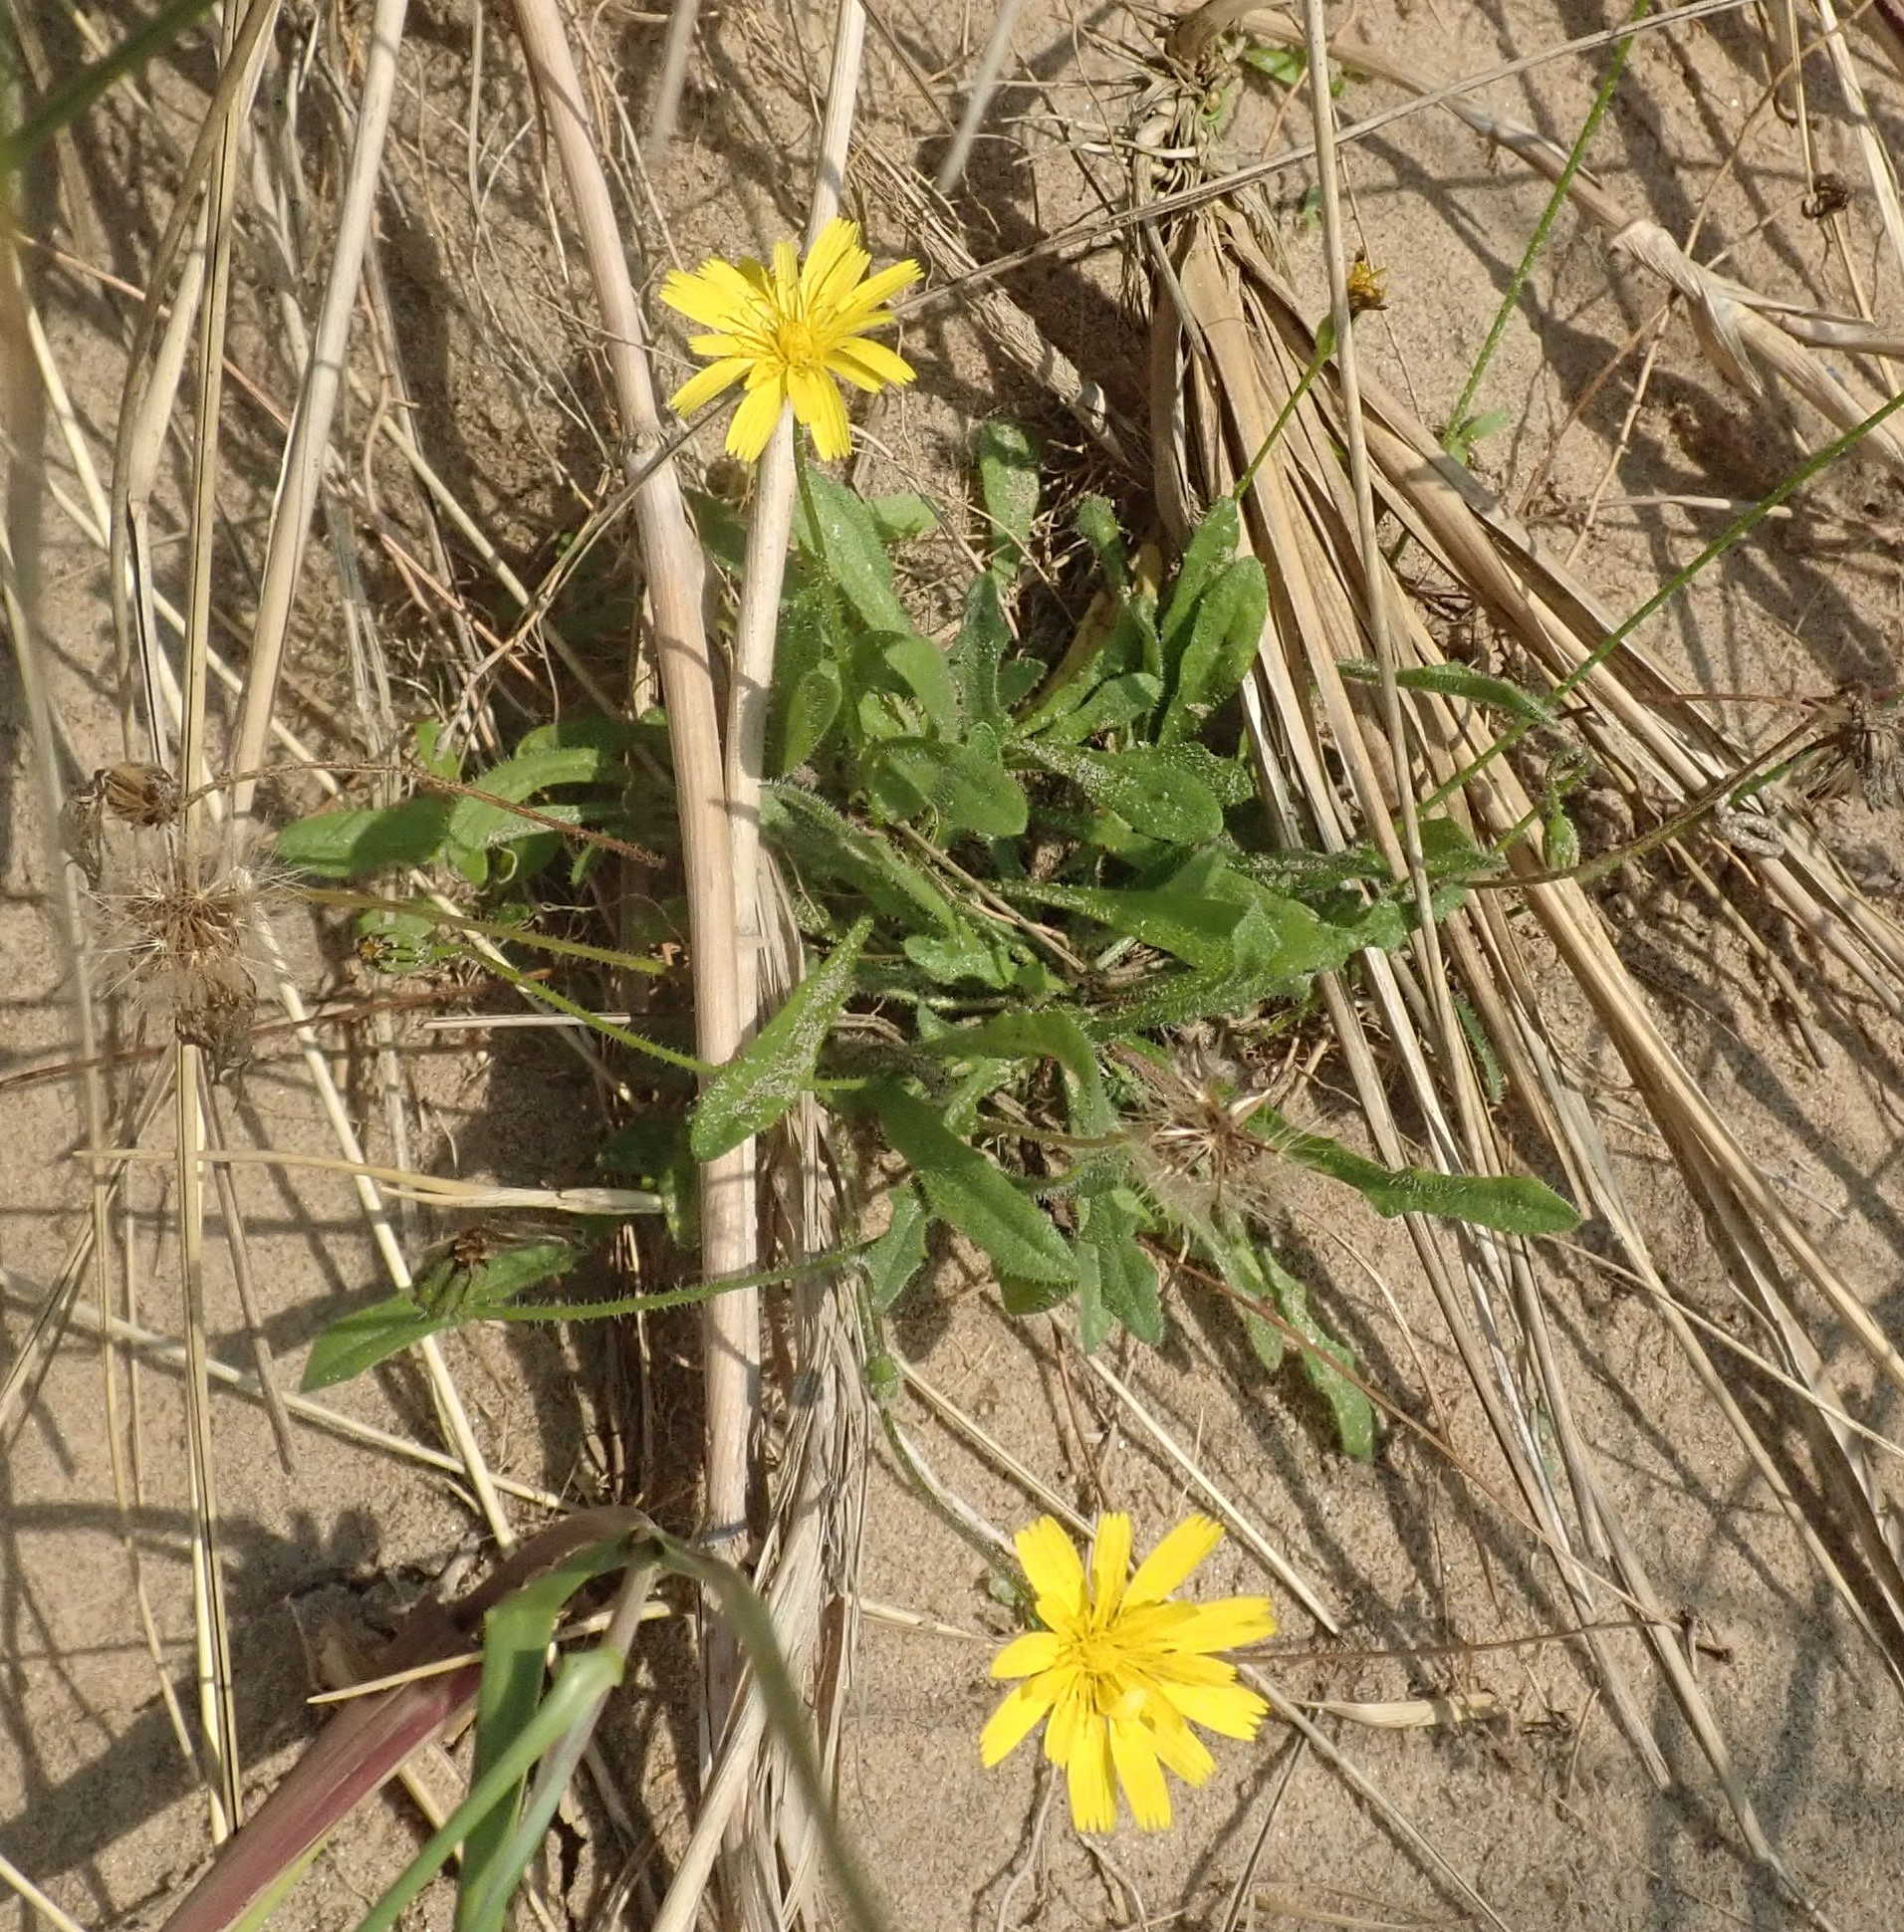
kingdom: Plantae
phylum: Tracheophyta
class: Magnoliopsida
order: Asterales
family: Asteraceae
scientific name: Asteraceae
